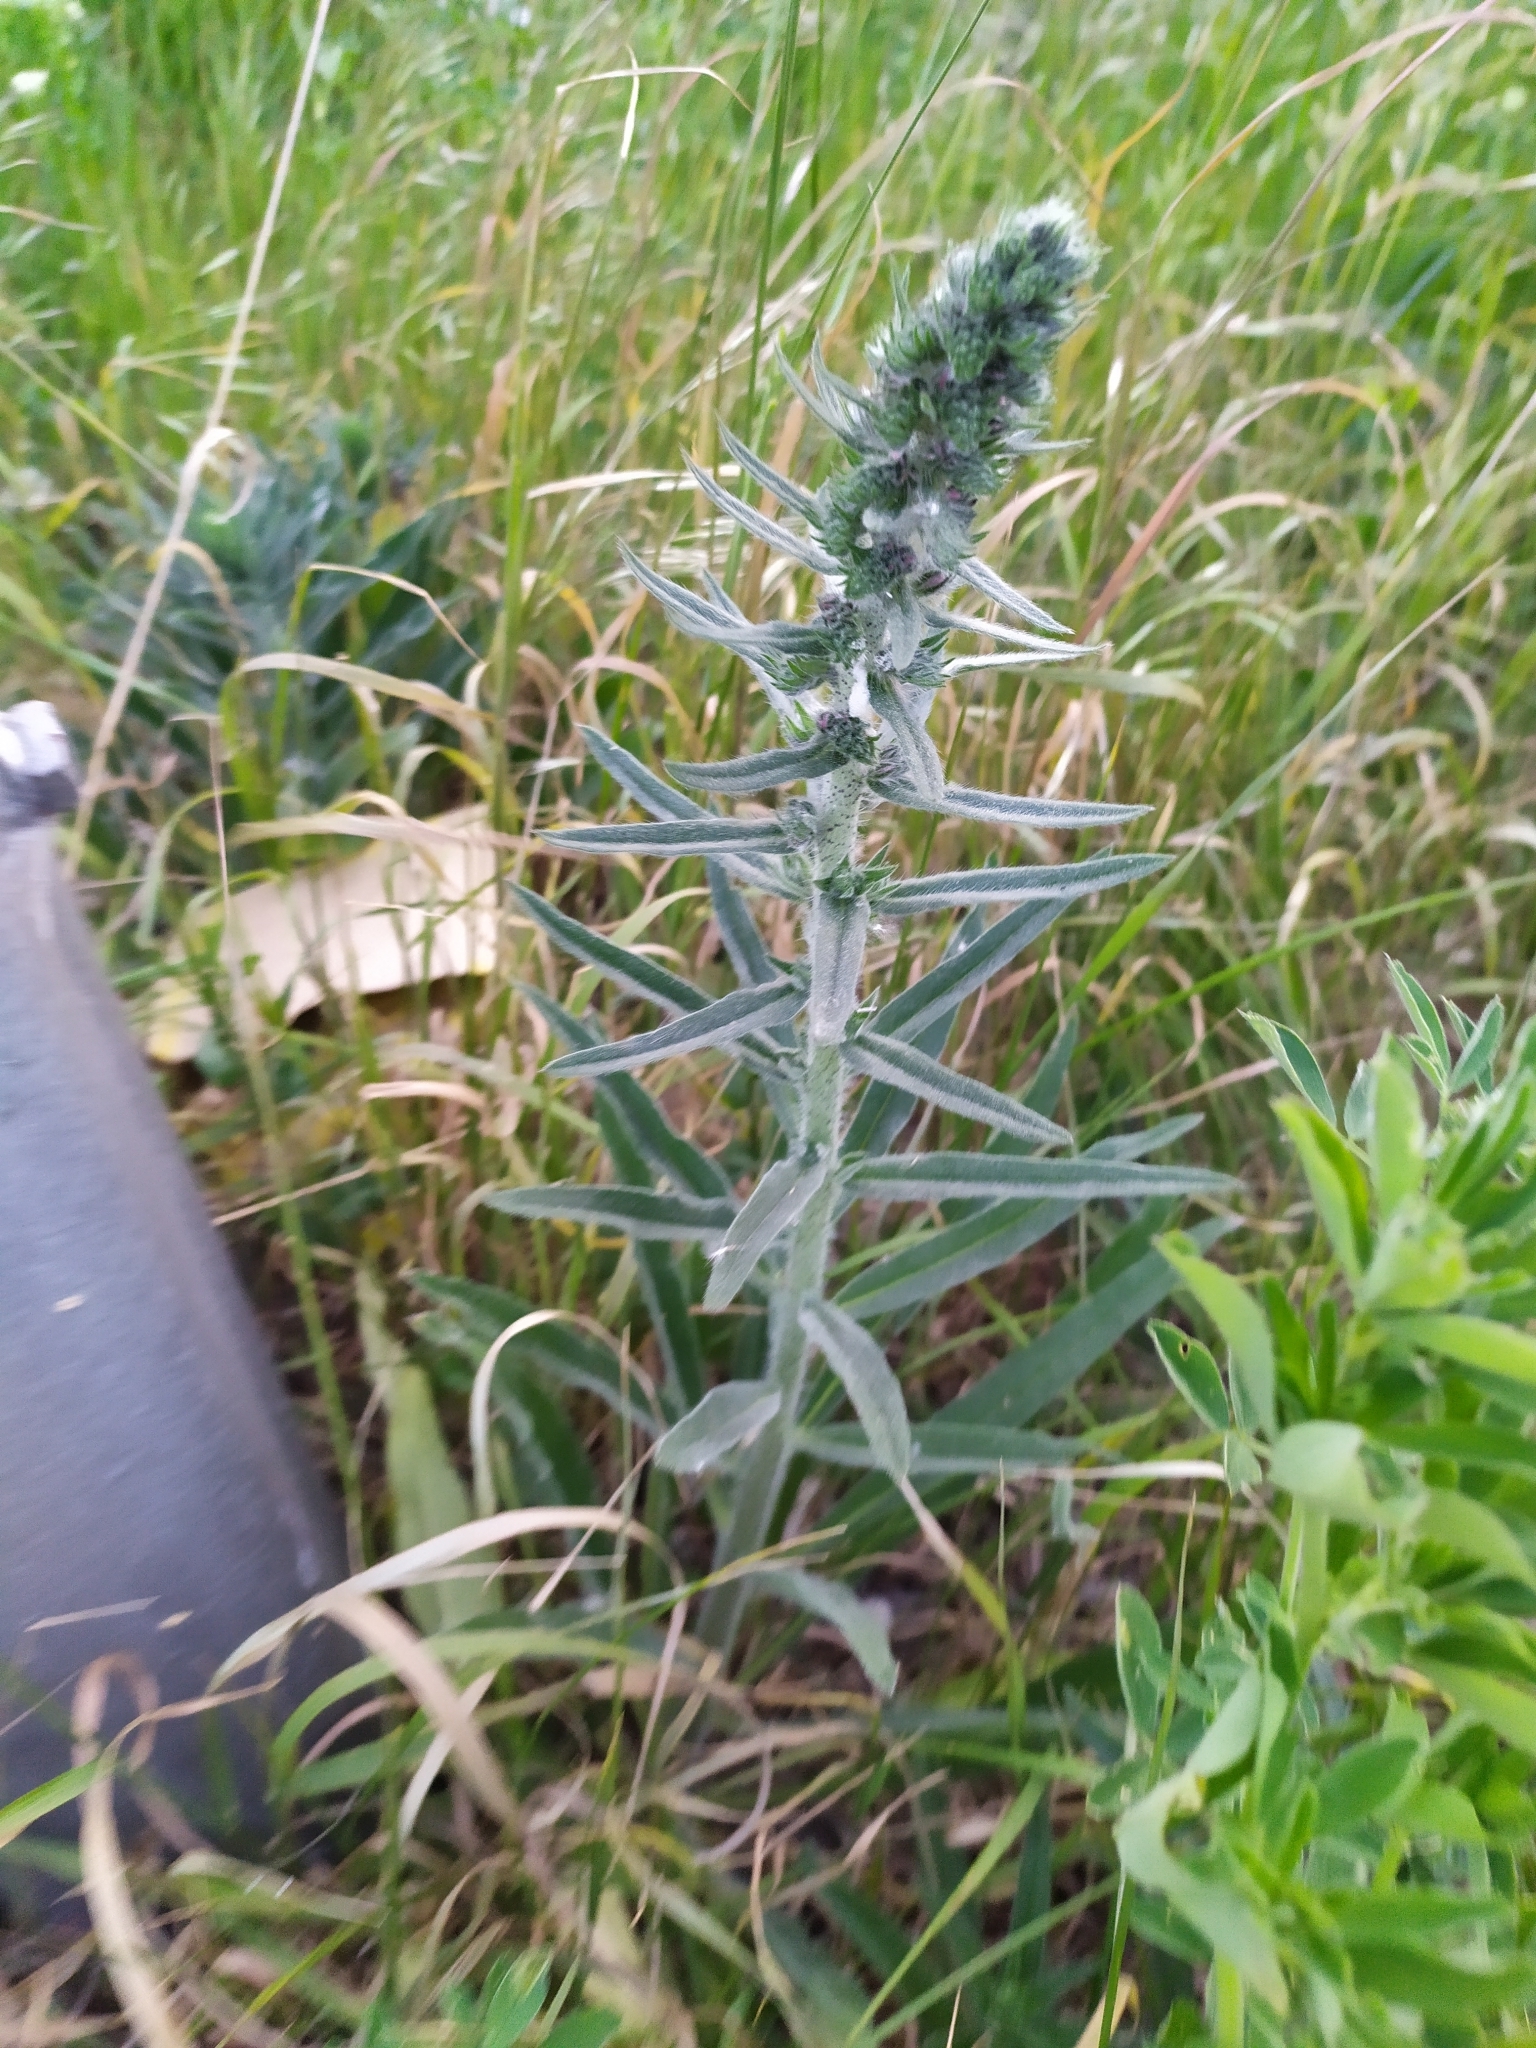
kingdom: Plantae
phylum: Tracheophyta
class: Magnoliopsida
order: Boraginales
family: Boraginaceae
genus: Echium
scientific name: Echium vulgare
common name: Common viper's bugloss
